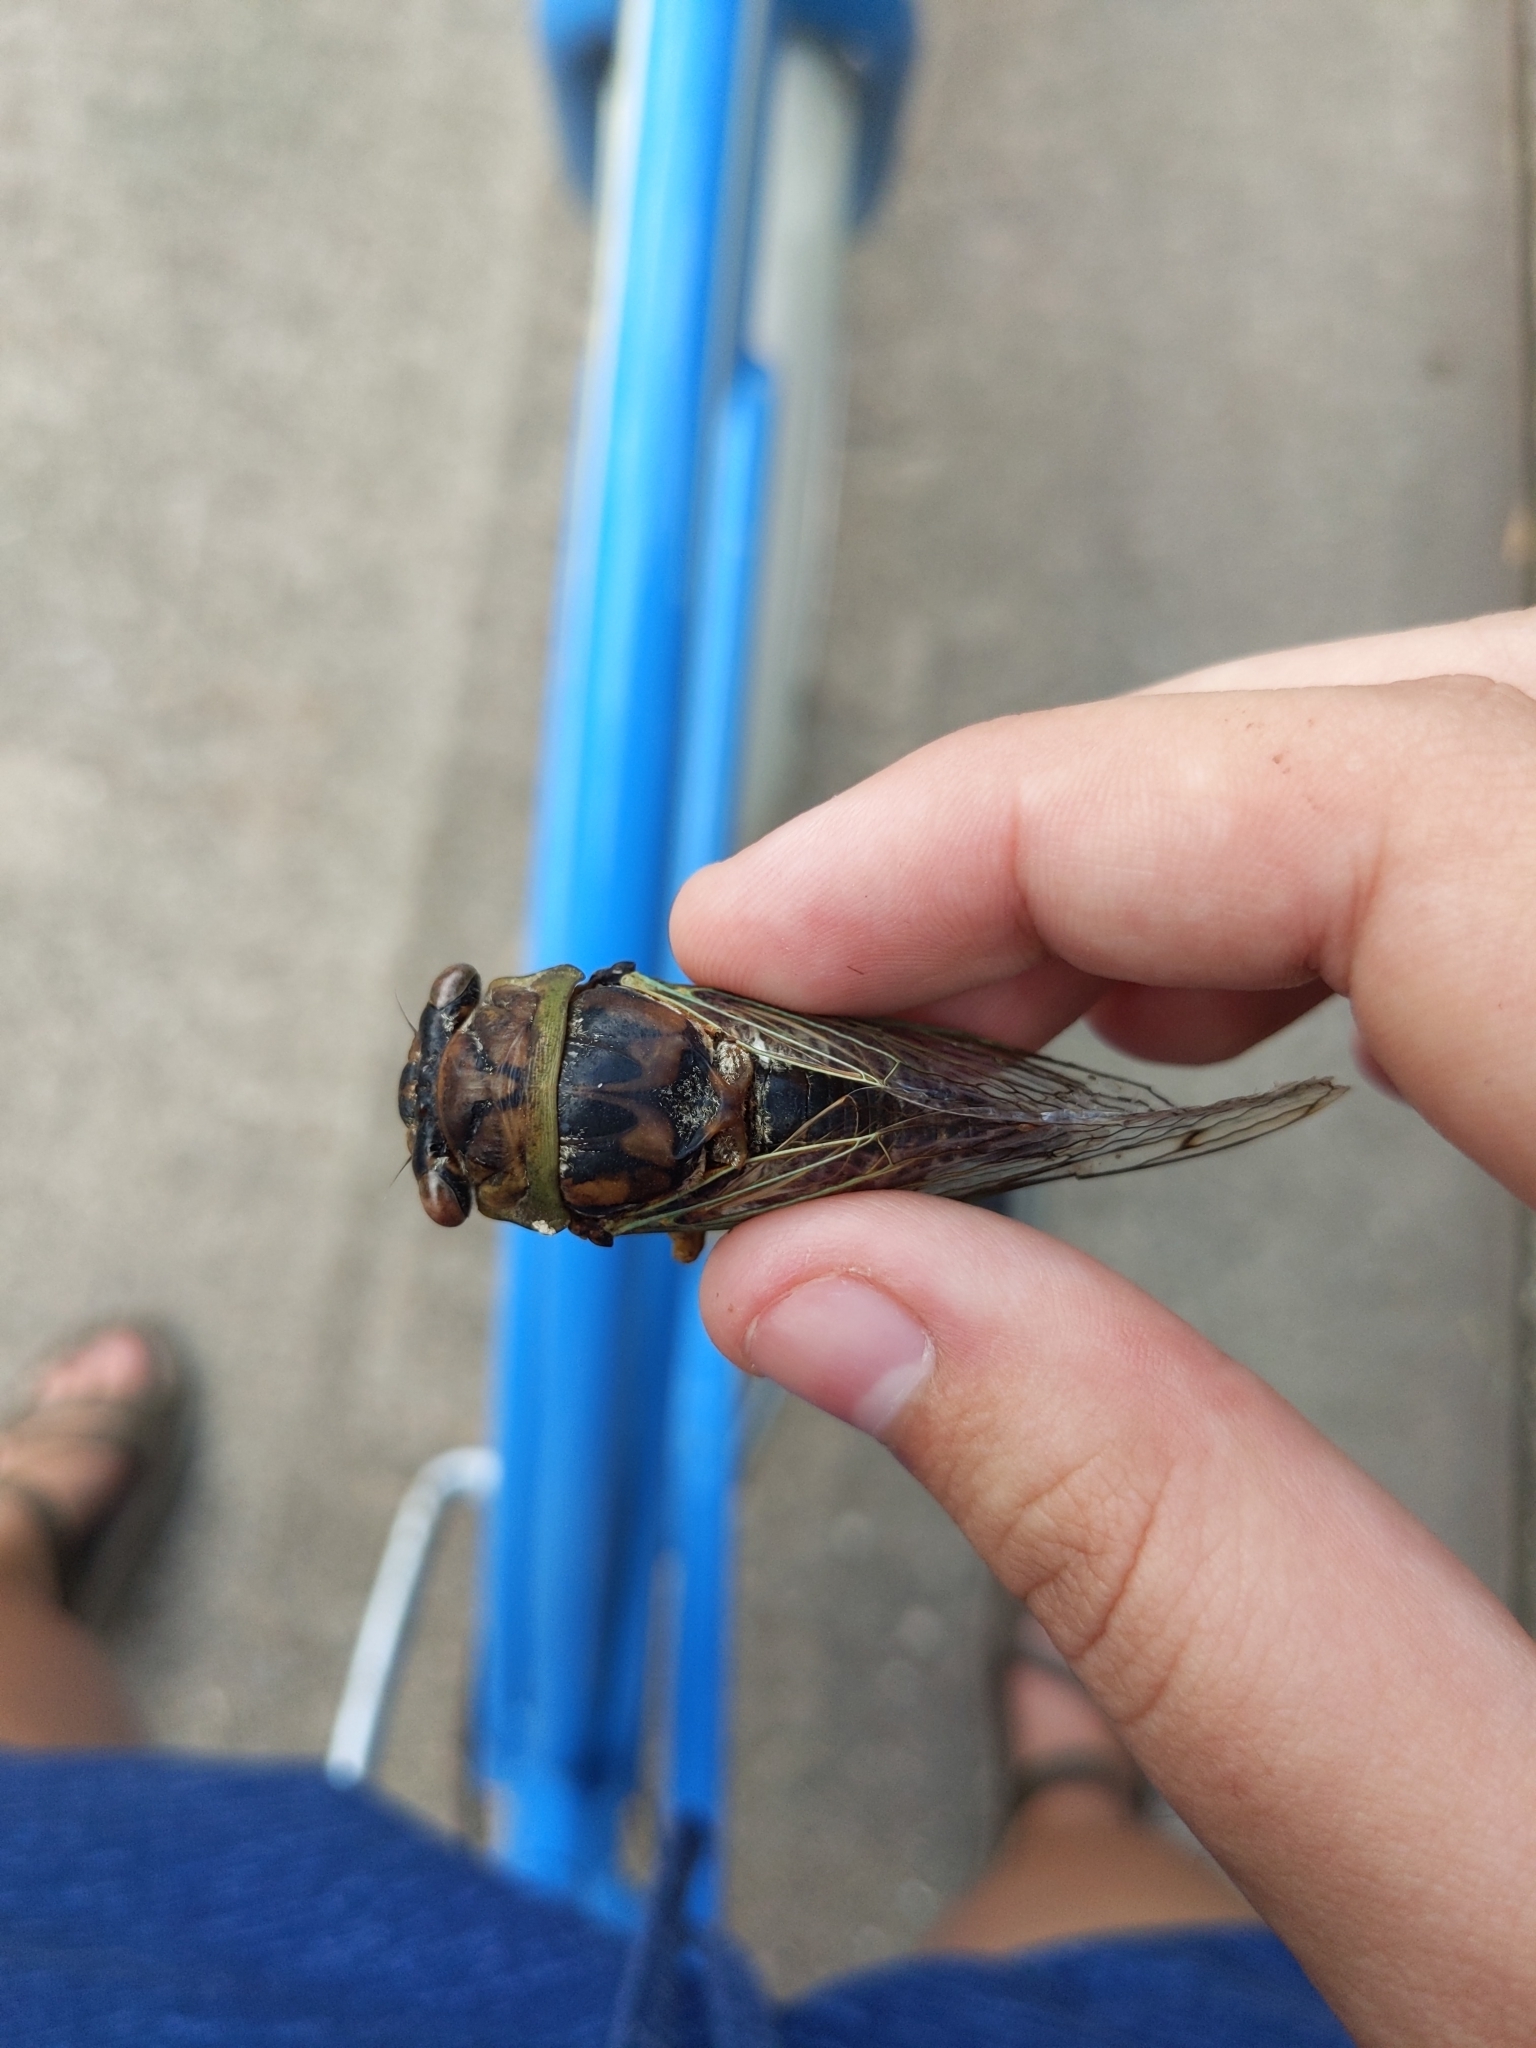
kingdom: Animalia
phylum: Arthropoda
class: Insecta
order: Hemiptera
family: Cicadidae
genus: Megatibicen
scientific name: Megatibicen resh
